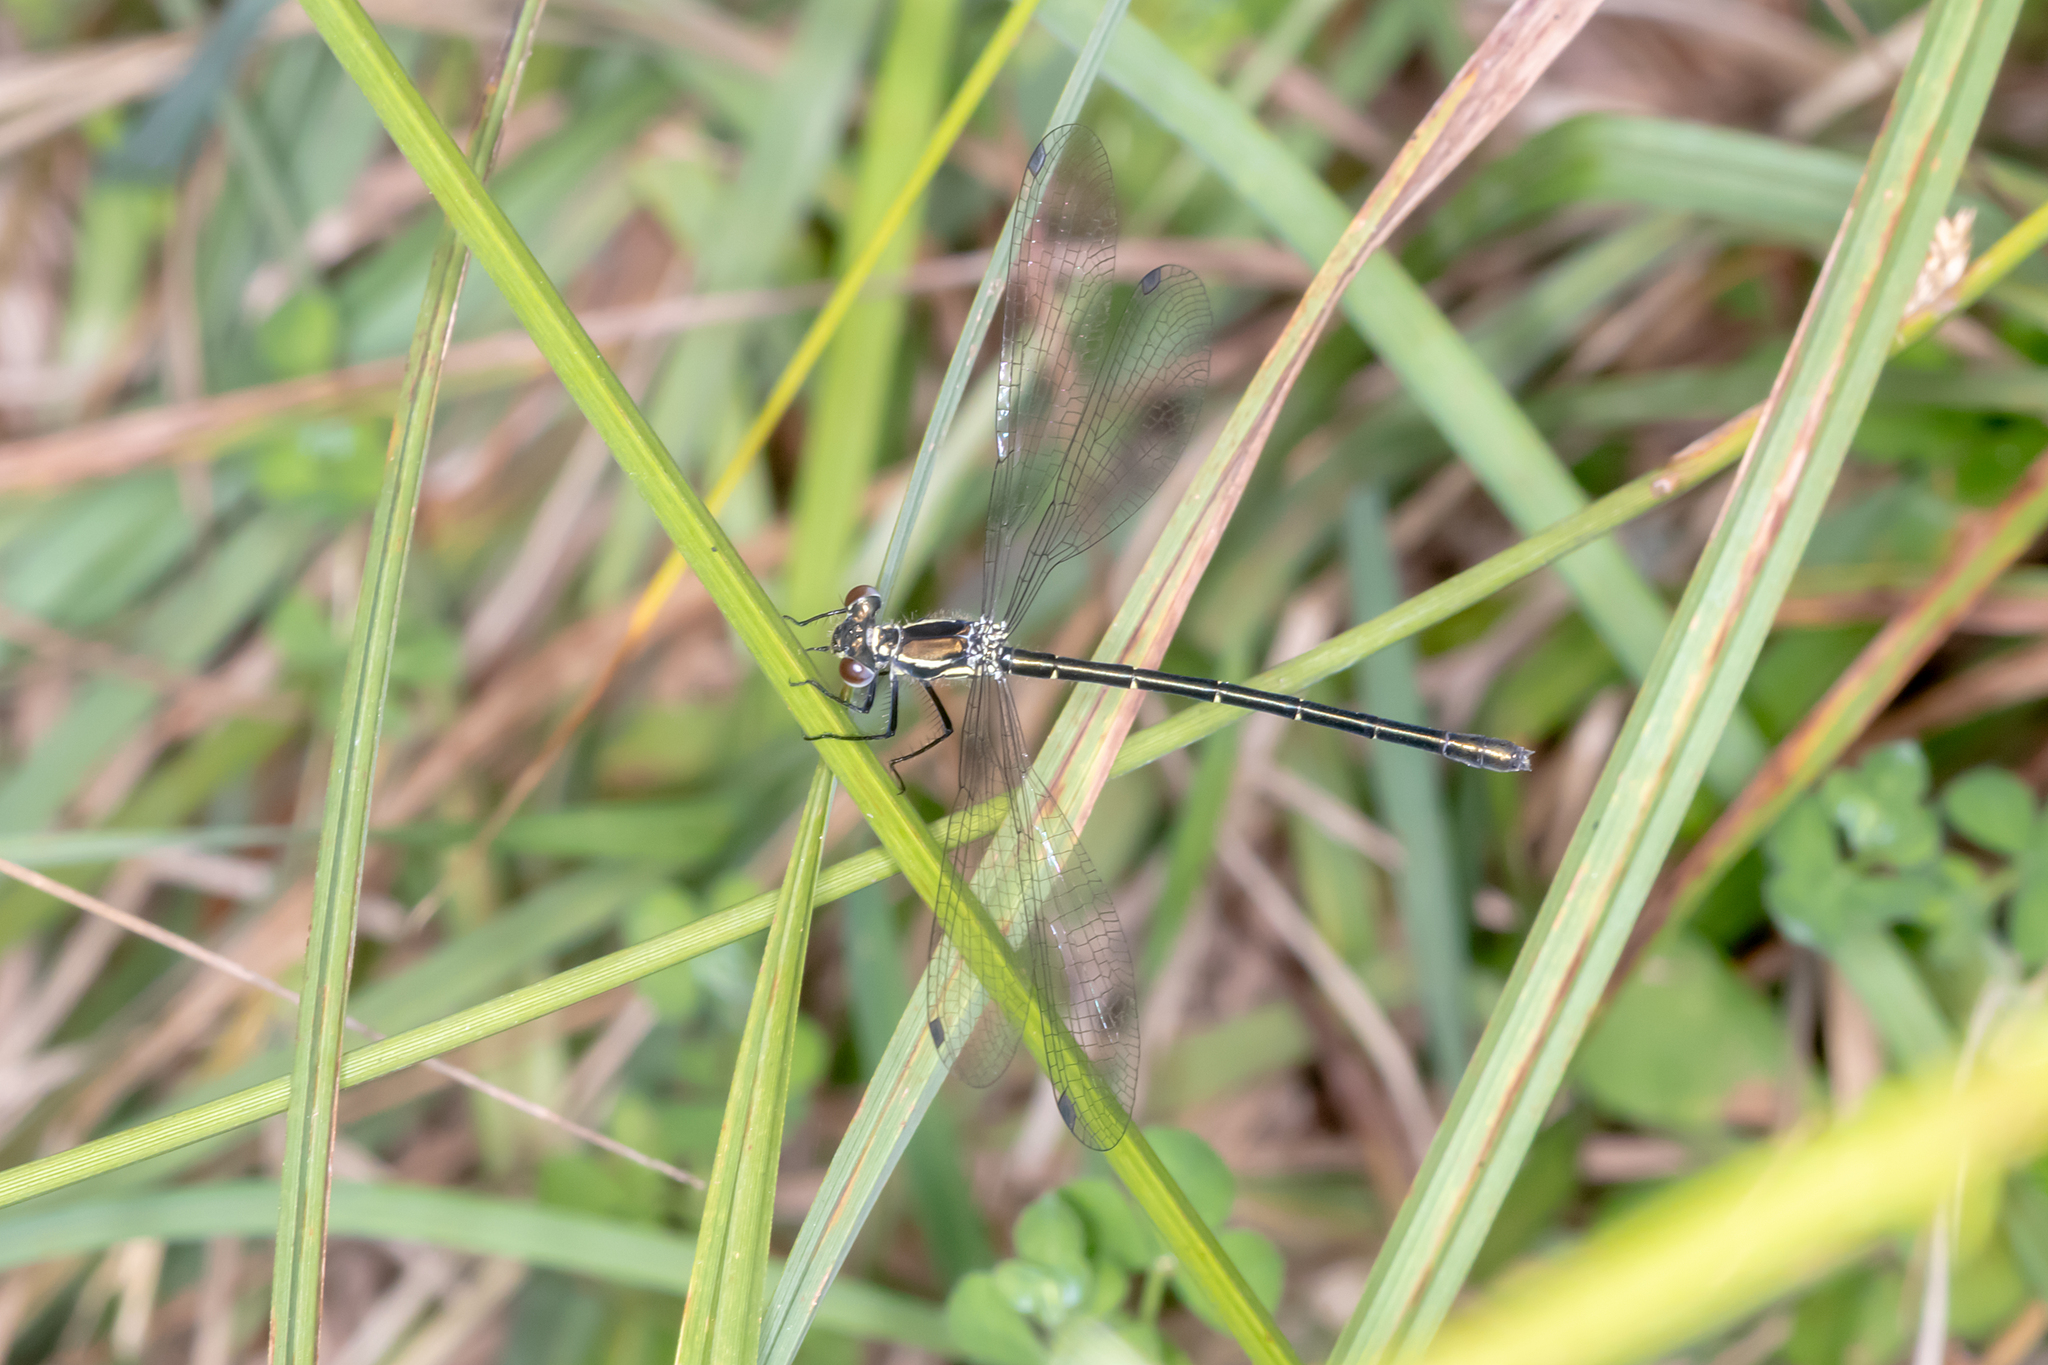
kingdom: Animalia
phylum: Arthropoda
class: Insecta
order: Odonata
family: Argiolestidae
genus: Griseargiolestes
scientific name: Griseargiolestes intermedius
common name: Alpine flatwing
